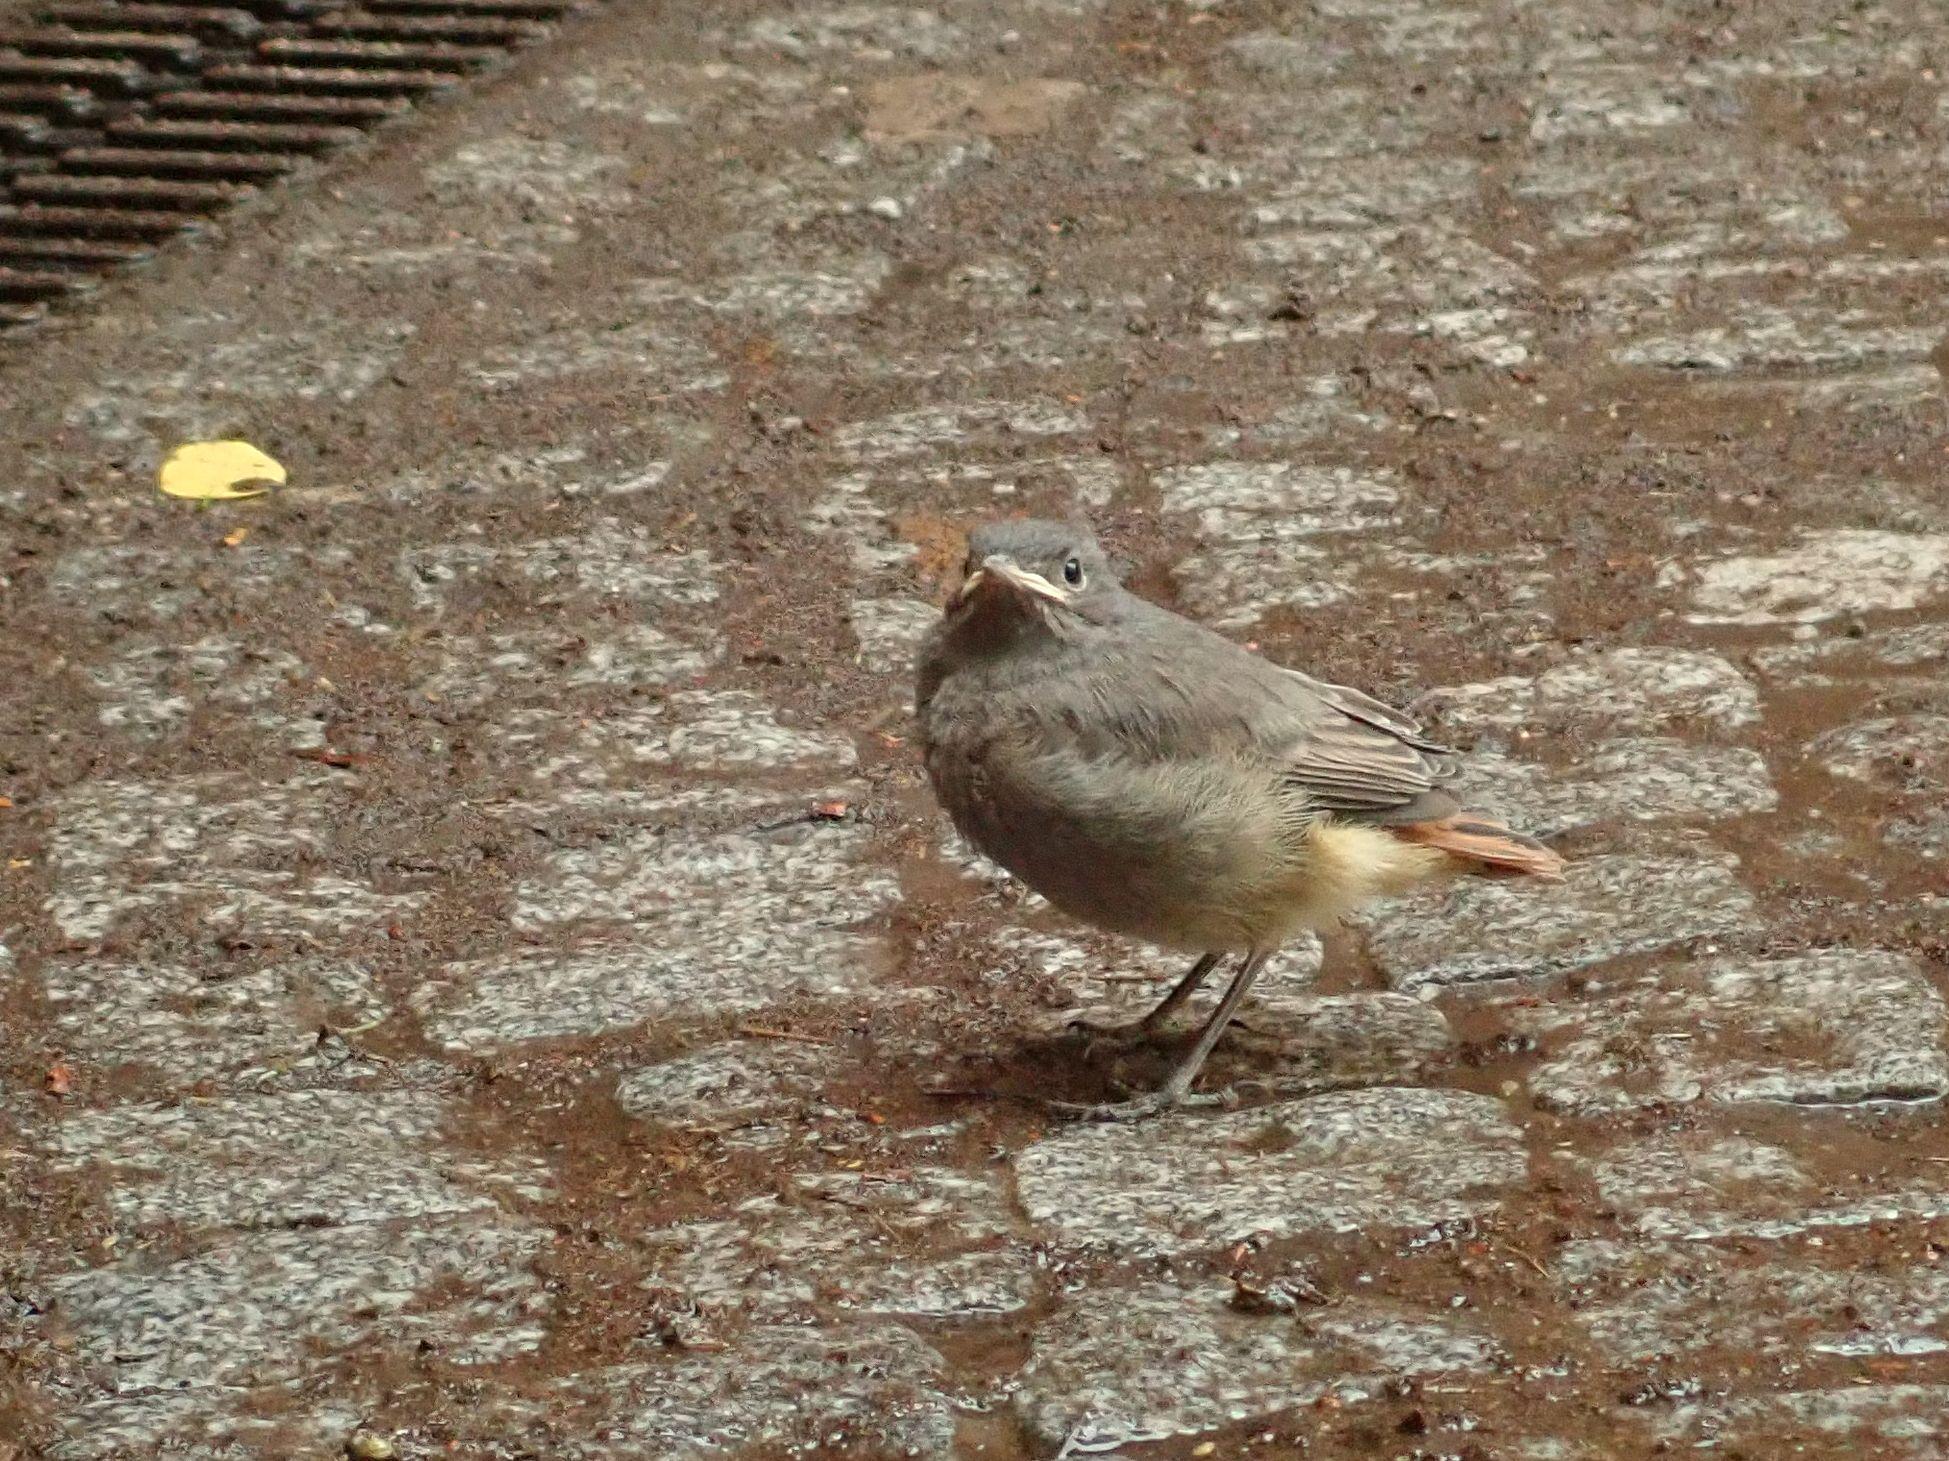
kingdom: Animalia
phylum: Chordata
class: Aves
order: Passeriformes
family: Muscicapidae
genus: Phoenicurus
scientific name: Phoenicurus ochruros
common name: Black redstart
